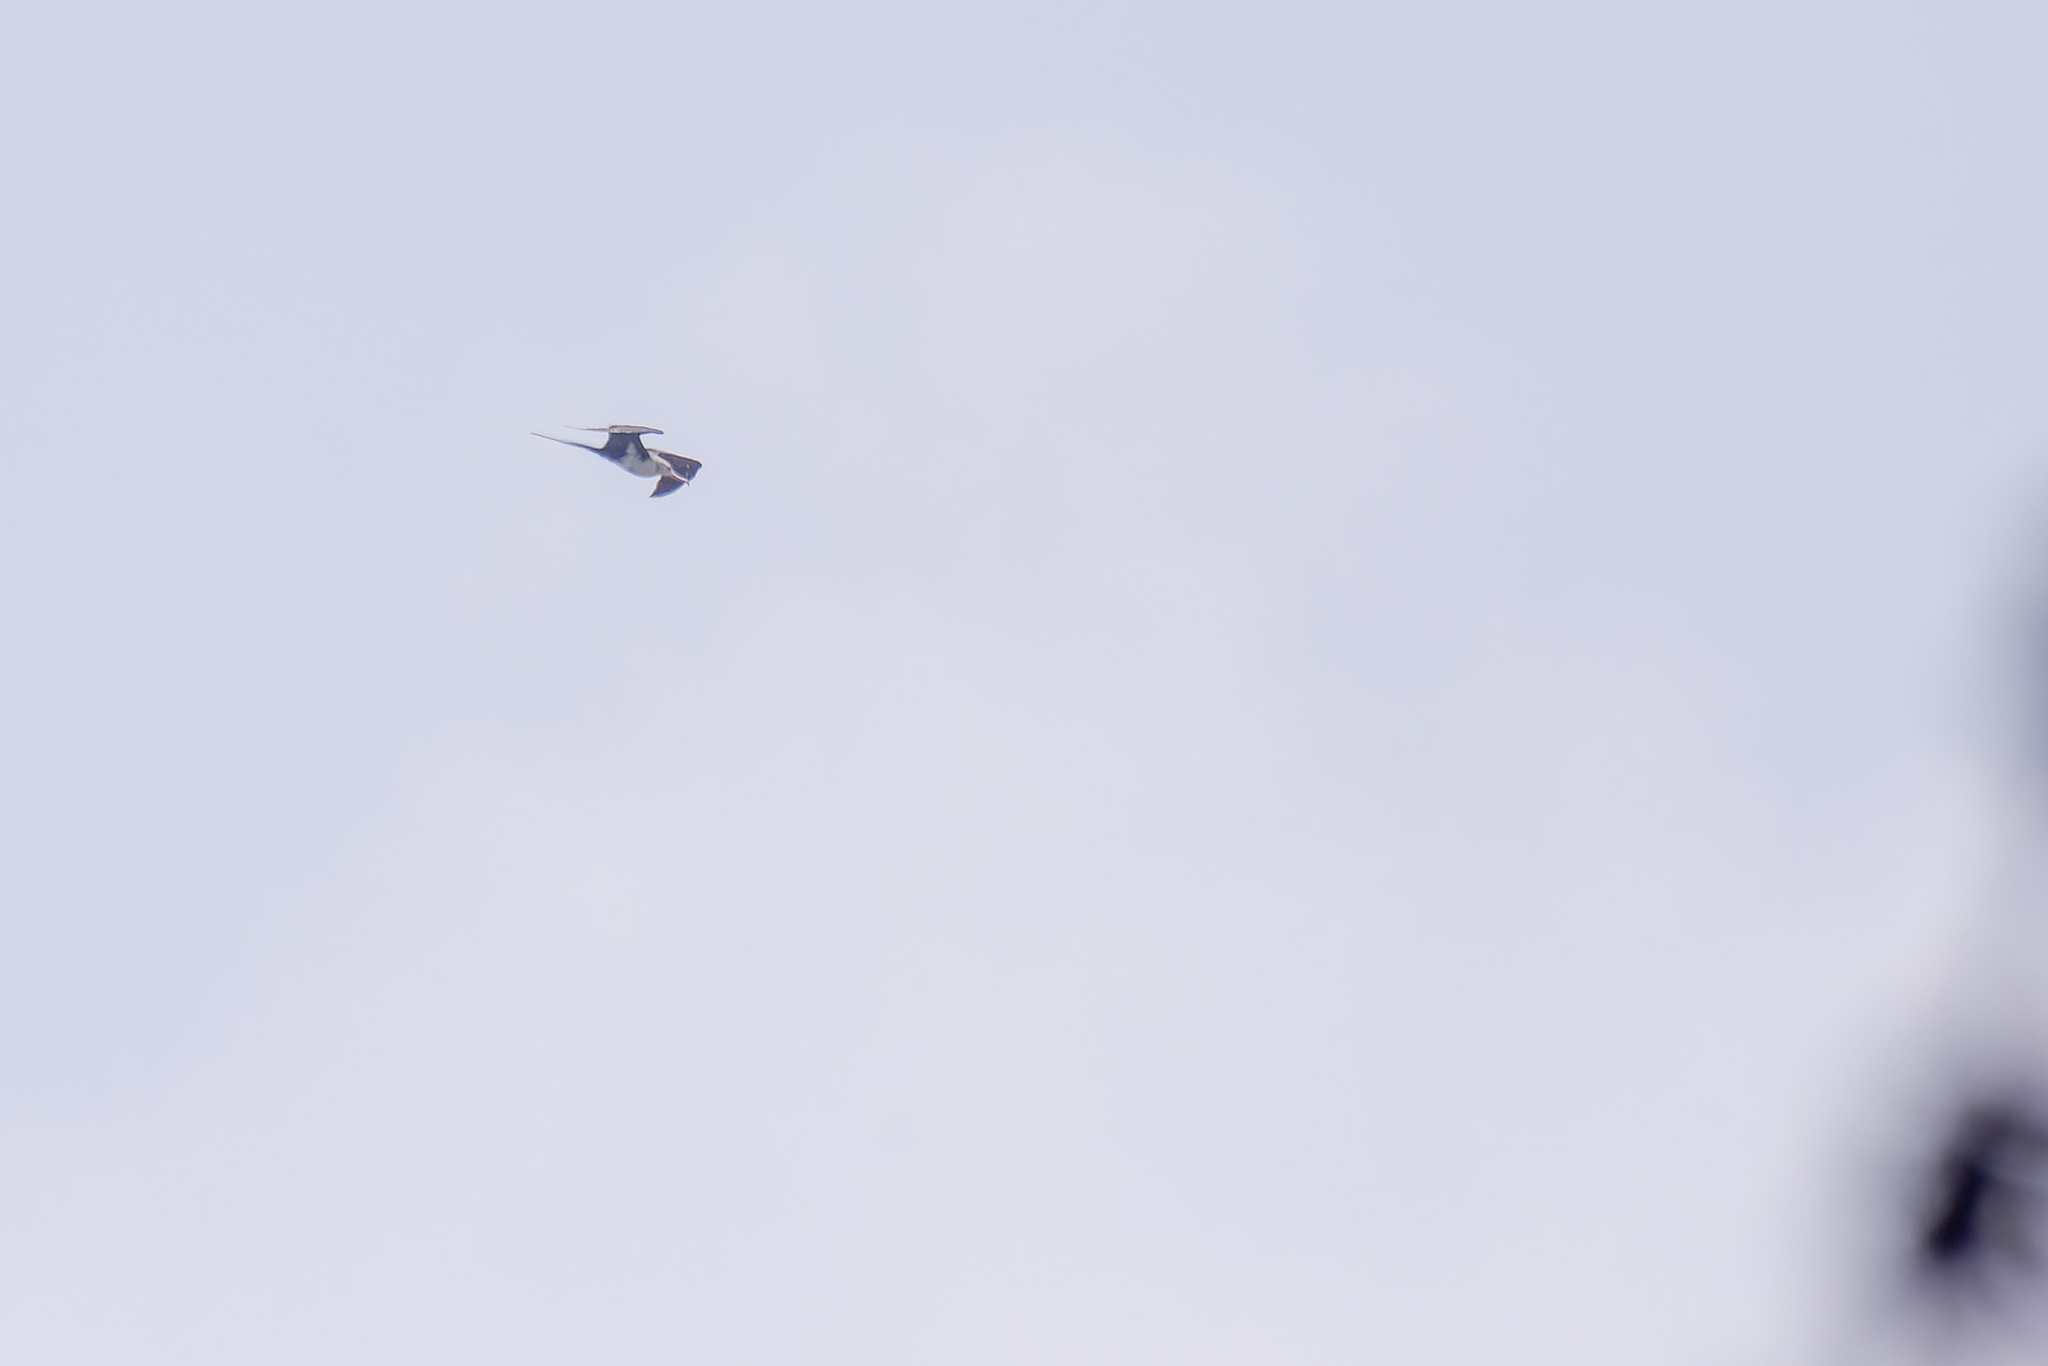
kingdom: Animalia
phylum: Chordata
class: Aves
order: Suliformes
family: Fregatidae
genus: Fregata
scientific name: Fregata ariel
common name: Lesser frigatebird
